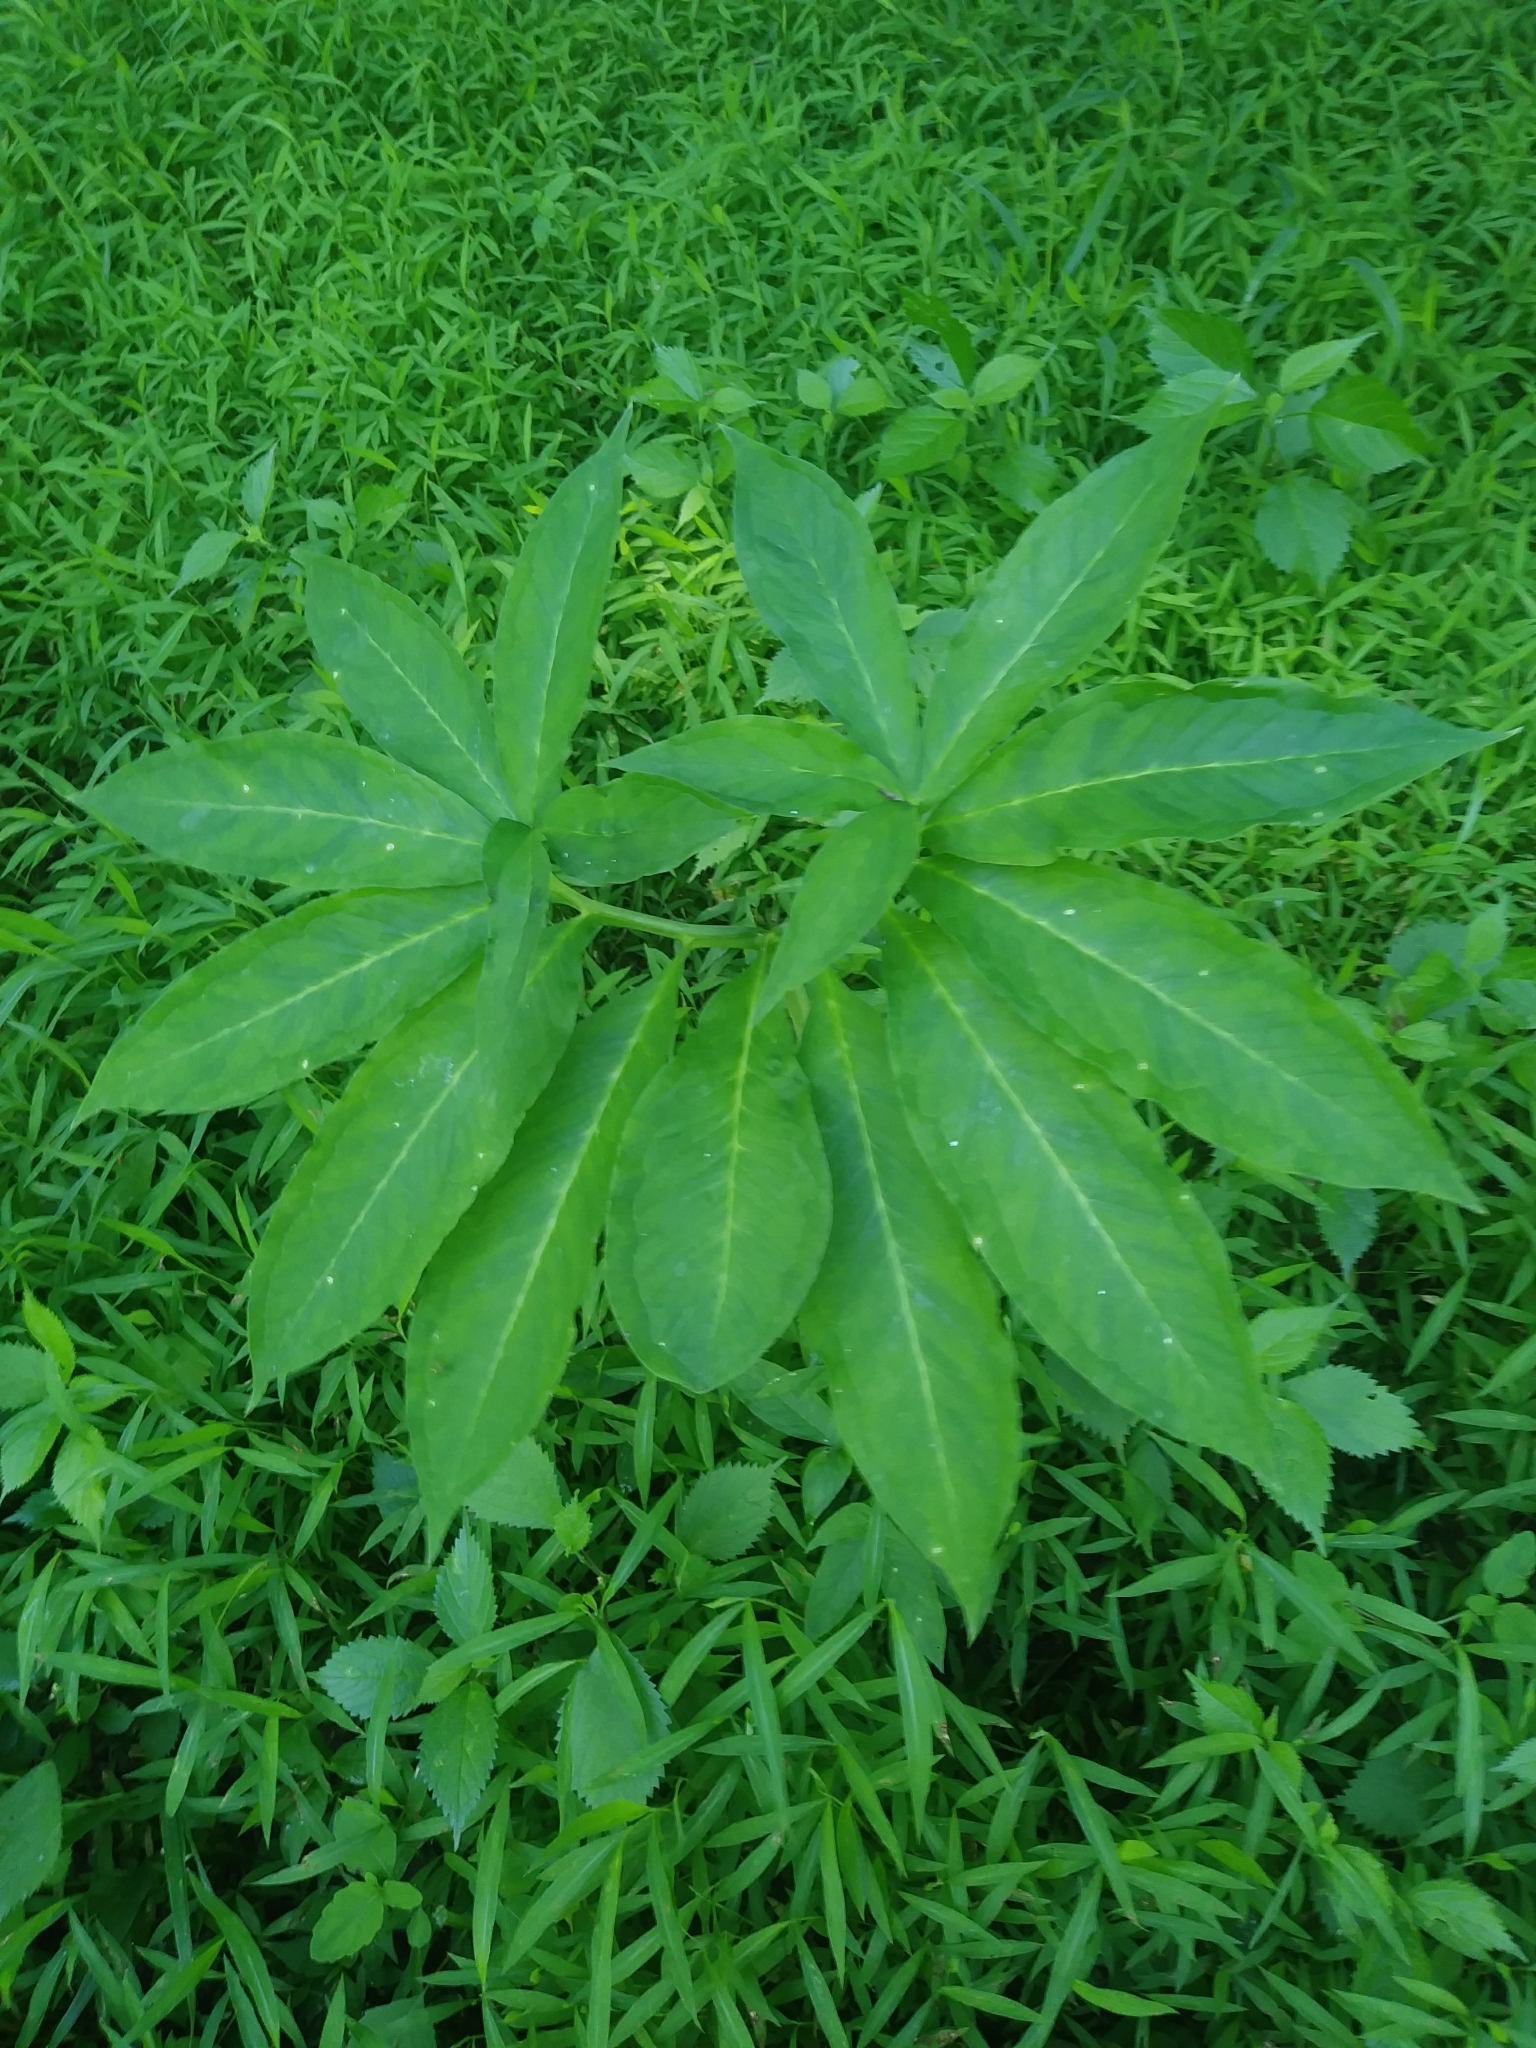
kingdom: Plantae
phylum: Tracheophyta
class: Liliopsida
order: Alismatales
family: Araceae
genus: Arisaema
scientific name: Arisaema dracontium
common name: Dragon-arum
